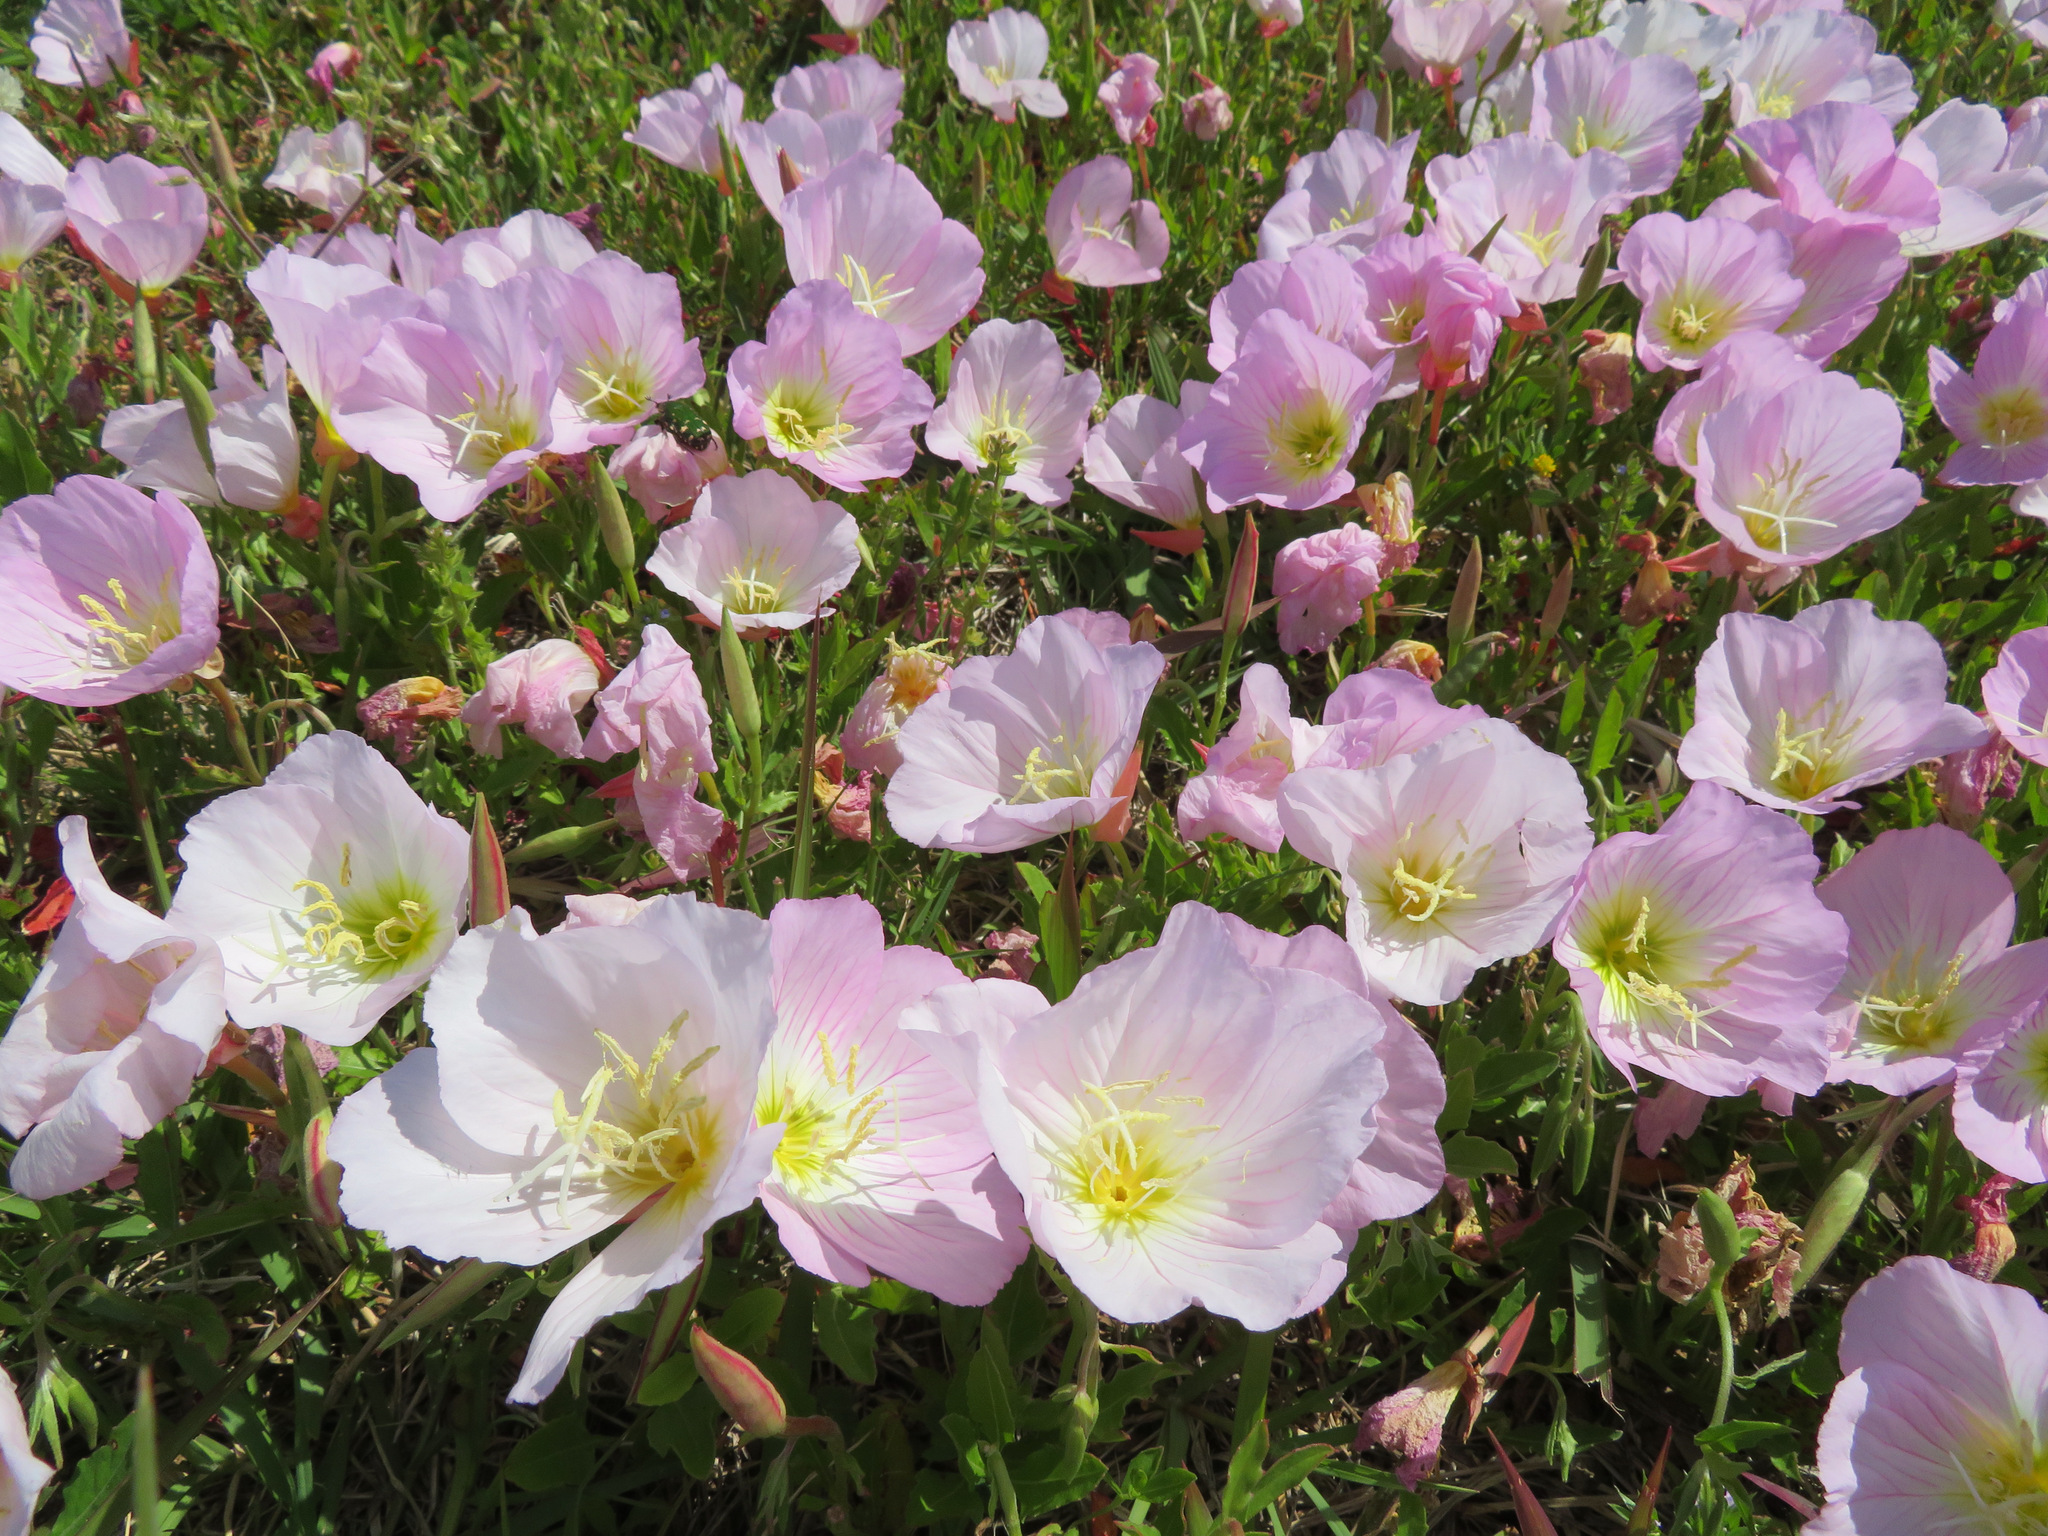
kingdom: Plantae
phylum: Tracheophyta
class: Magnoliopsida
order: Myrtales
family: Onagraceae
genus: Oenothera
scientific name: Oenothera speciosa
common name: White evening-primrose
